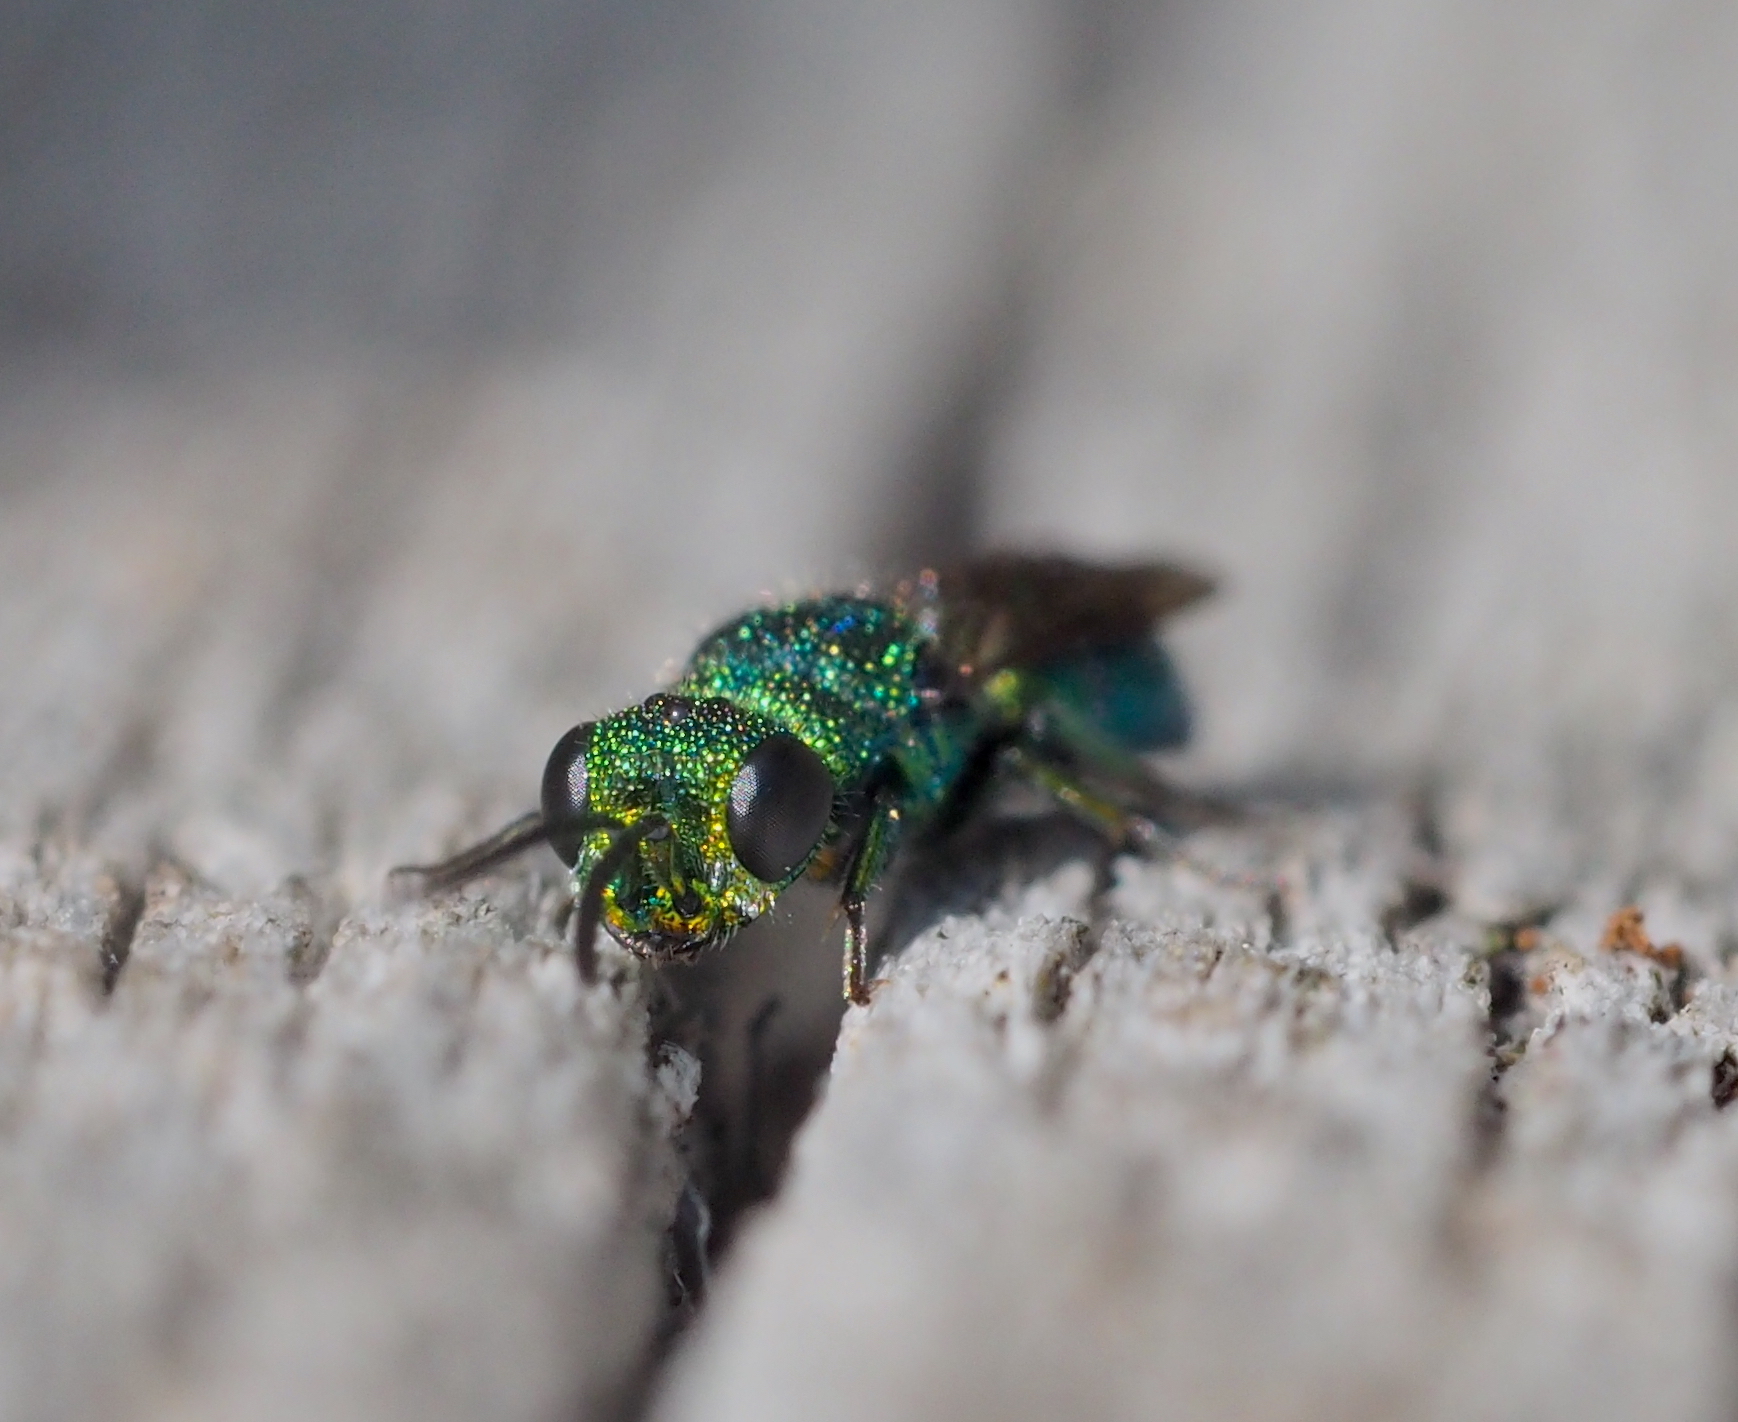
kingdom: Animalia
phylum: Arthropoda
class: Insecta
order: Hymenoptera
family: Pompilidae
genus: Pepsis
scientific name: Pepsis cyanea
